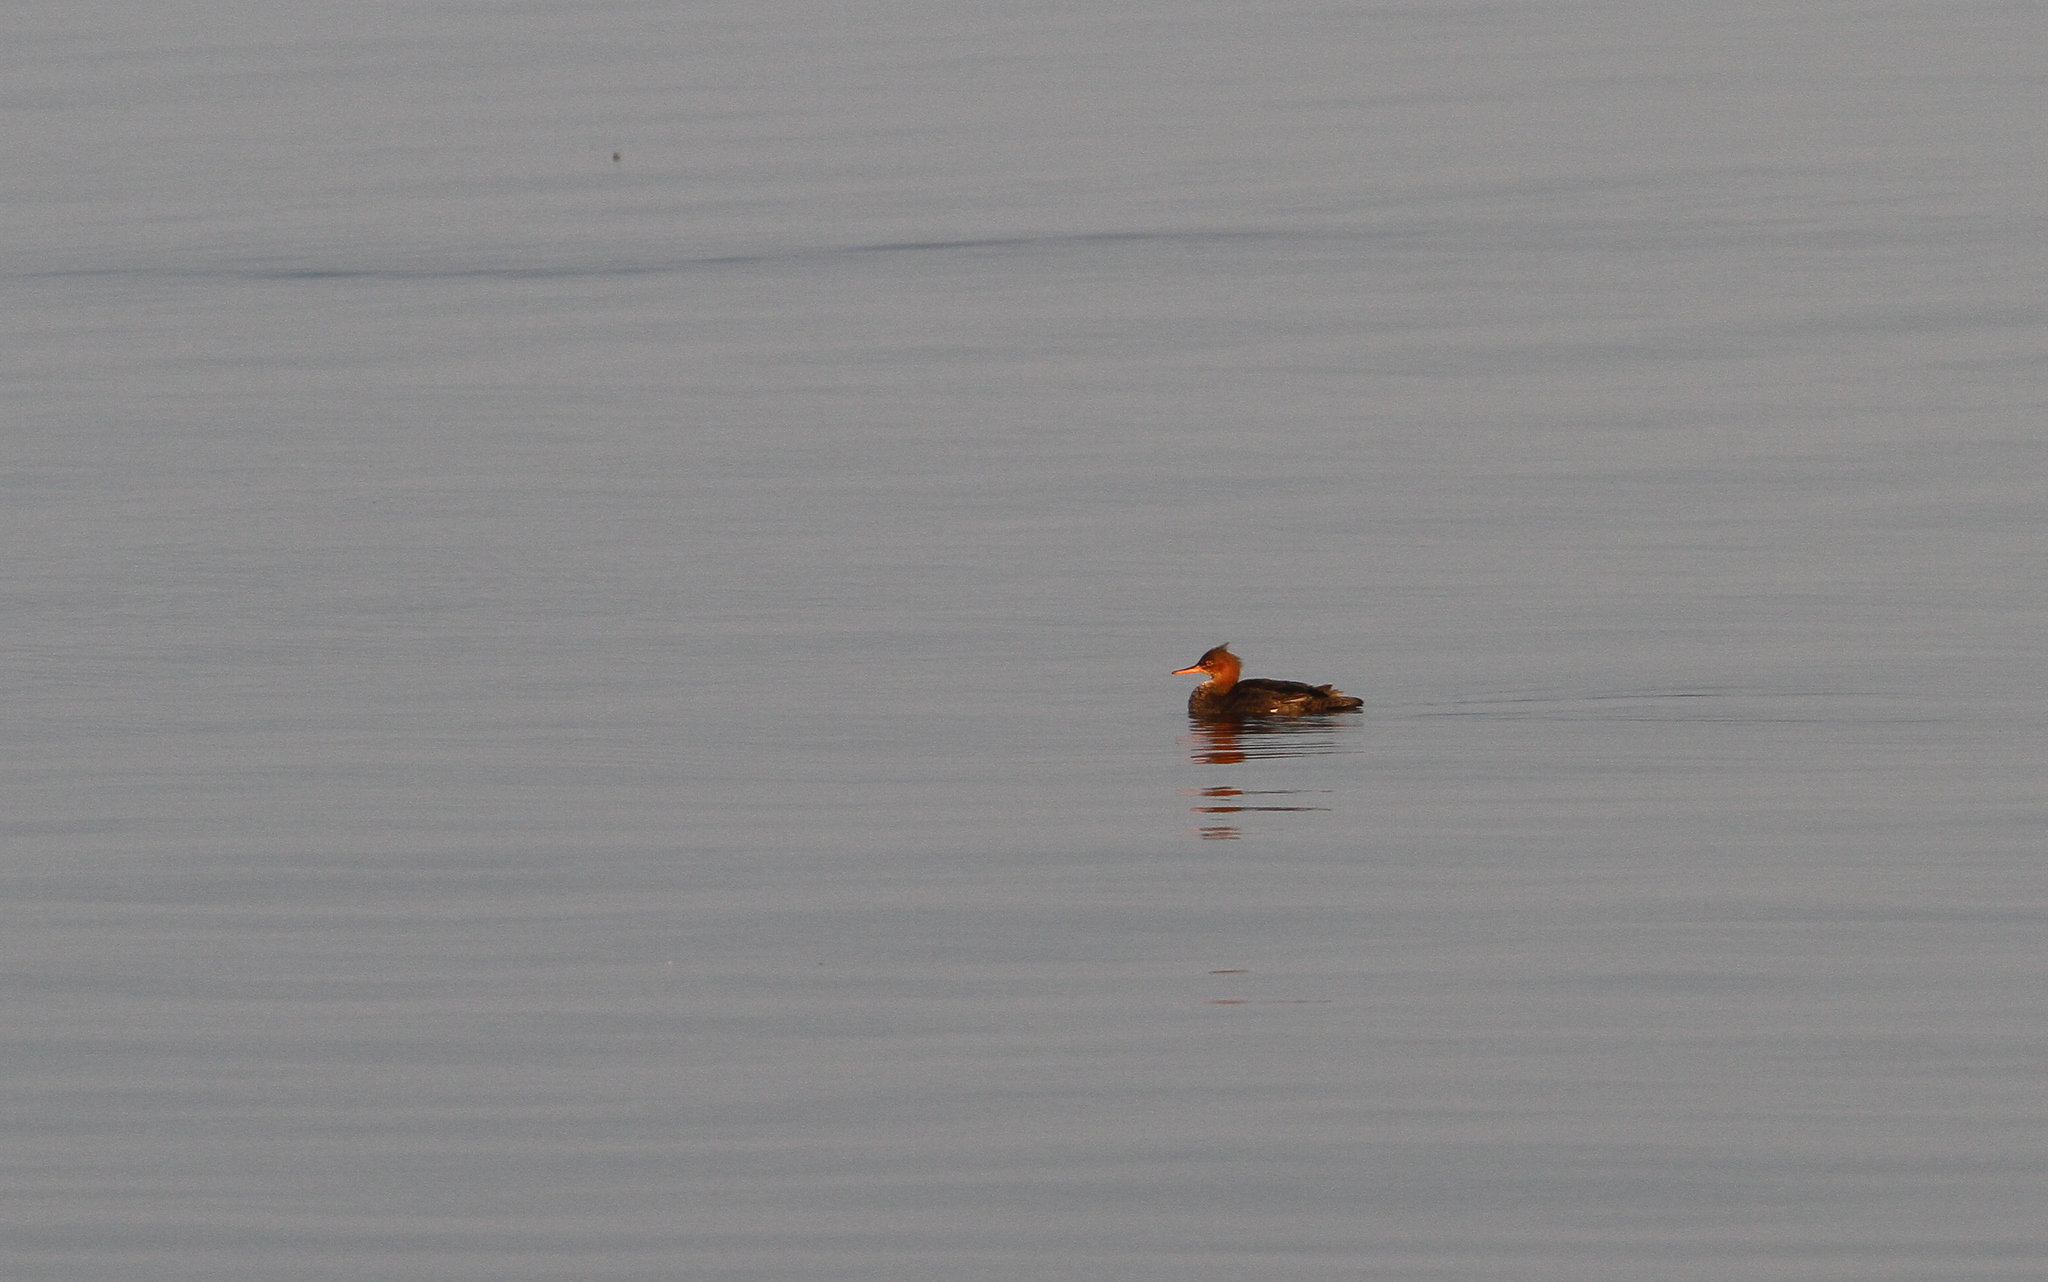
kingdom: Animalia
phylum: Chordata
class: Aves
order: Anseriformes
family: Anatidae
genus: Mergus
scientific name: Mergus serrator
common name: Red-breasted merganser
